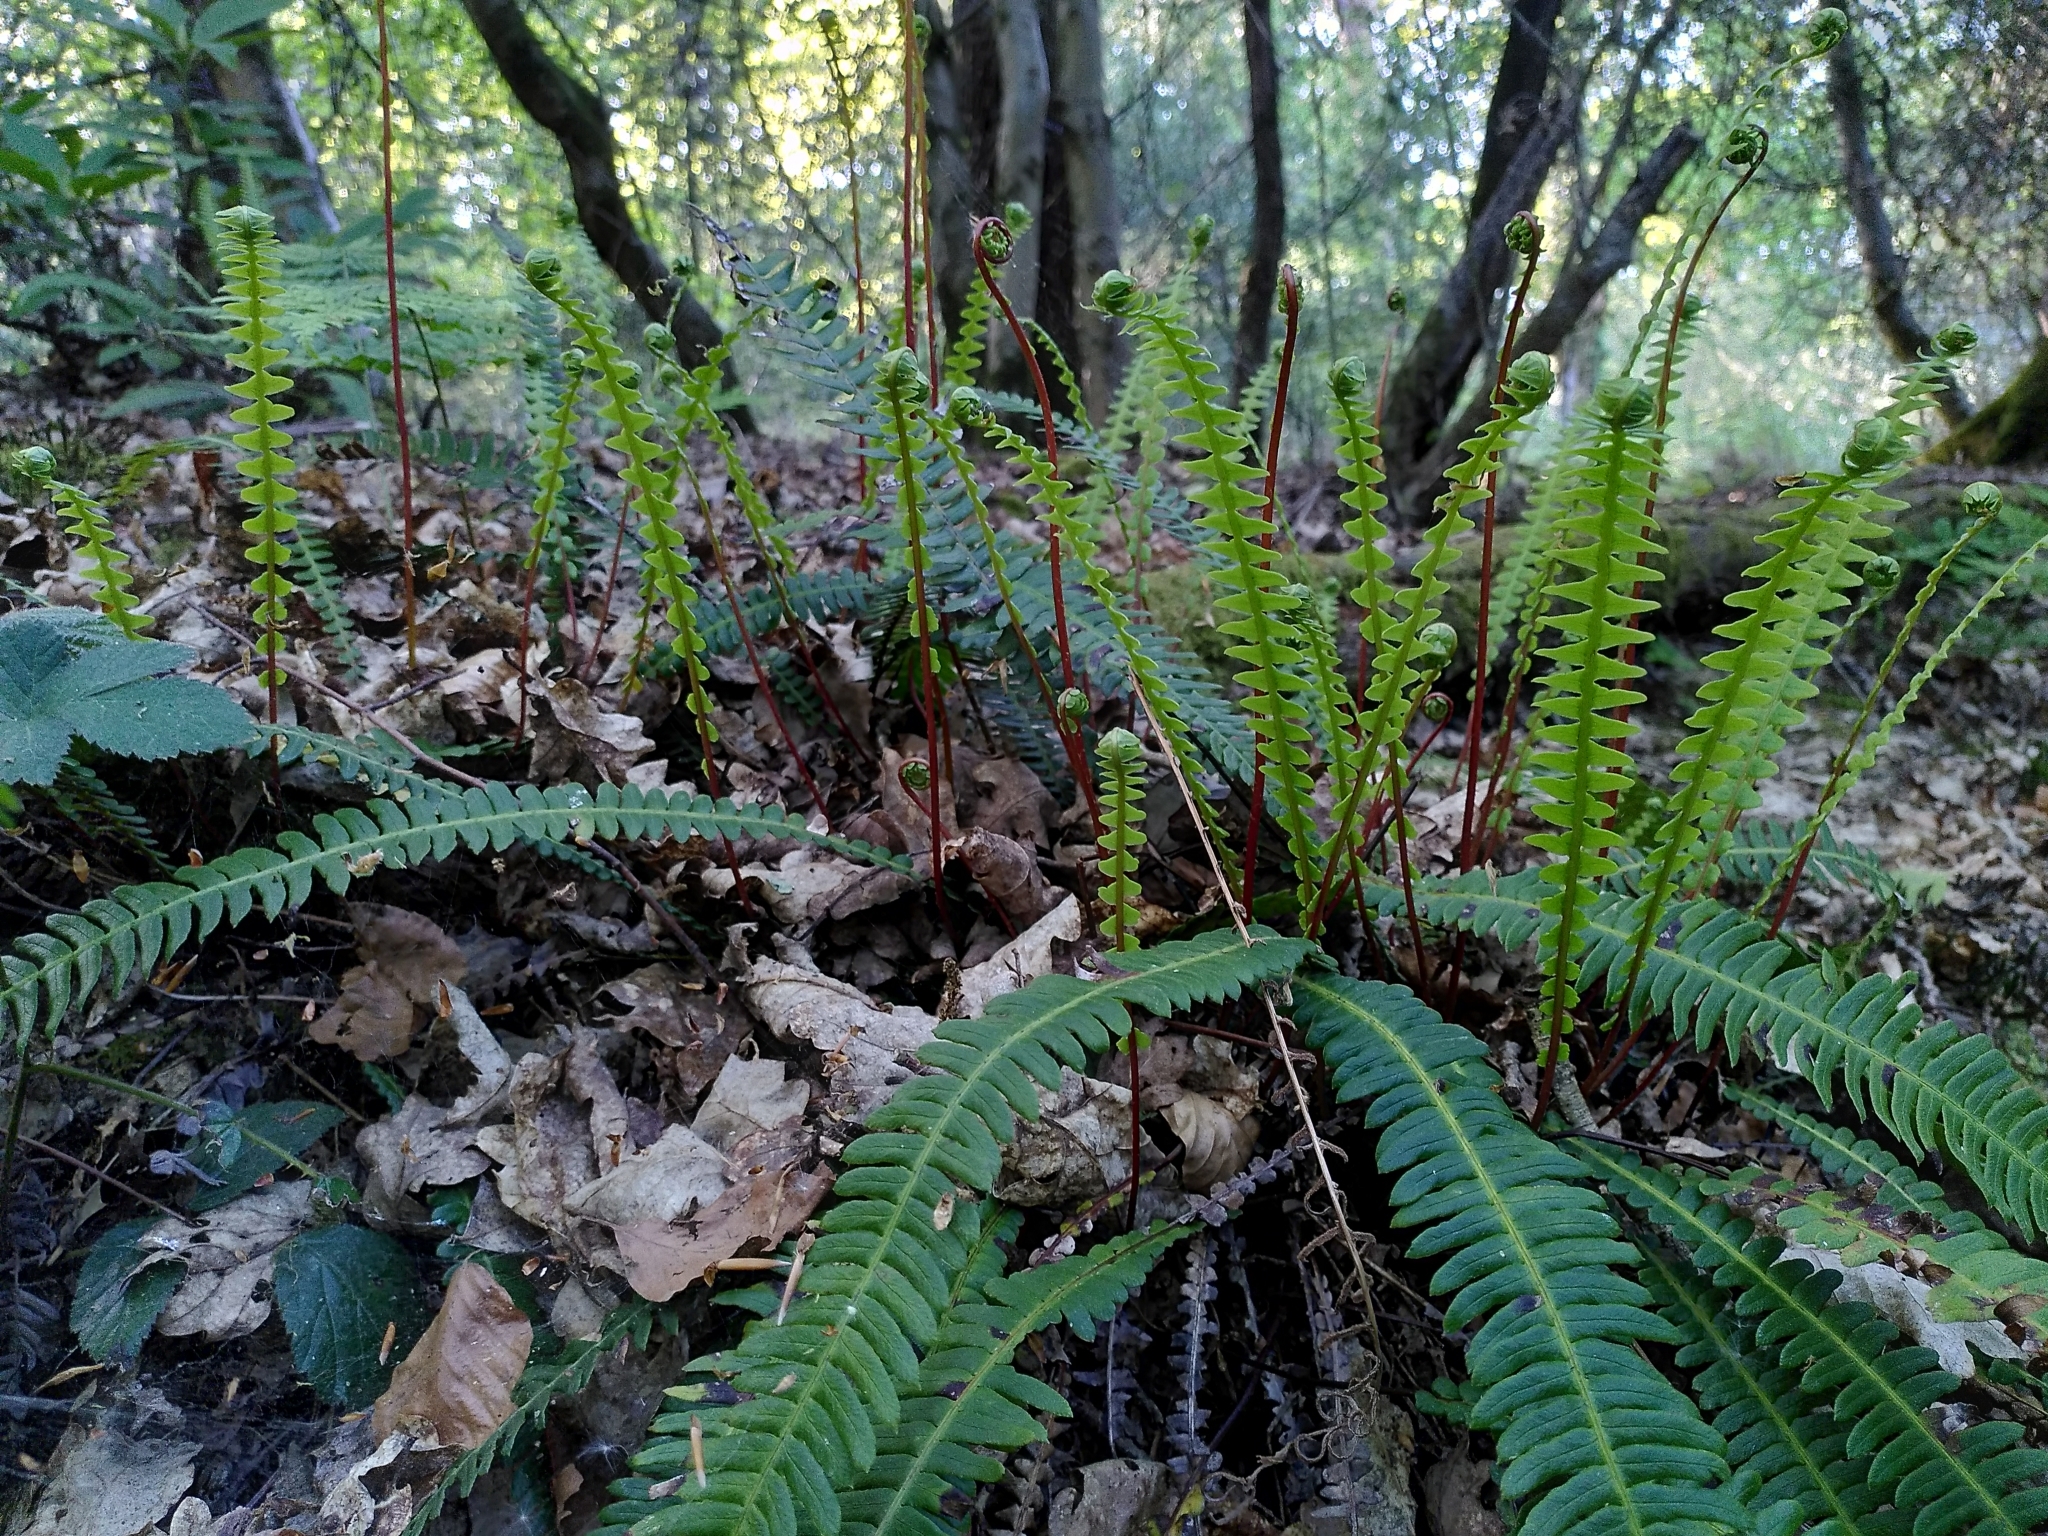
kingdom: Plantae
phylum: Tracheophyta
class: Polypodiopsida
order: Polypodiales
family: Blechnaceae
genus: Struthiopteris
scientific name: Struthiopteris spicant
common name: Deer fern
